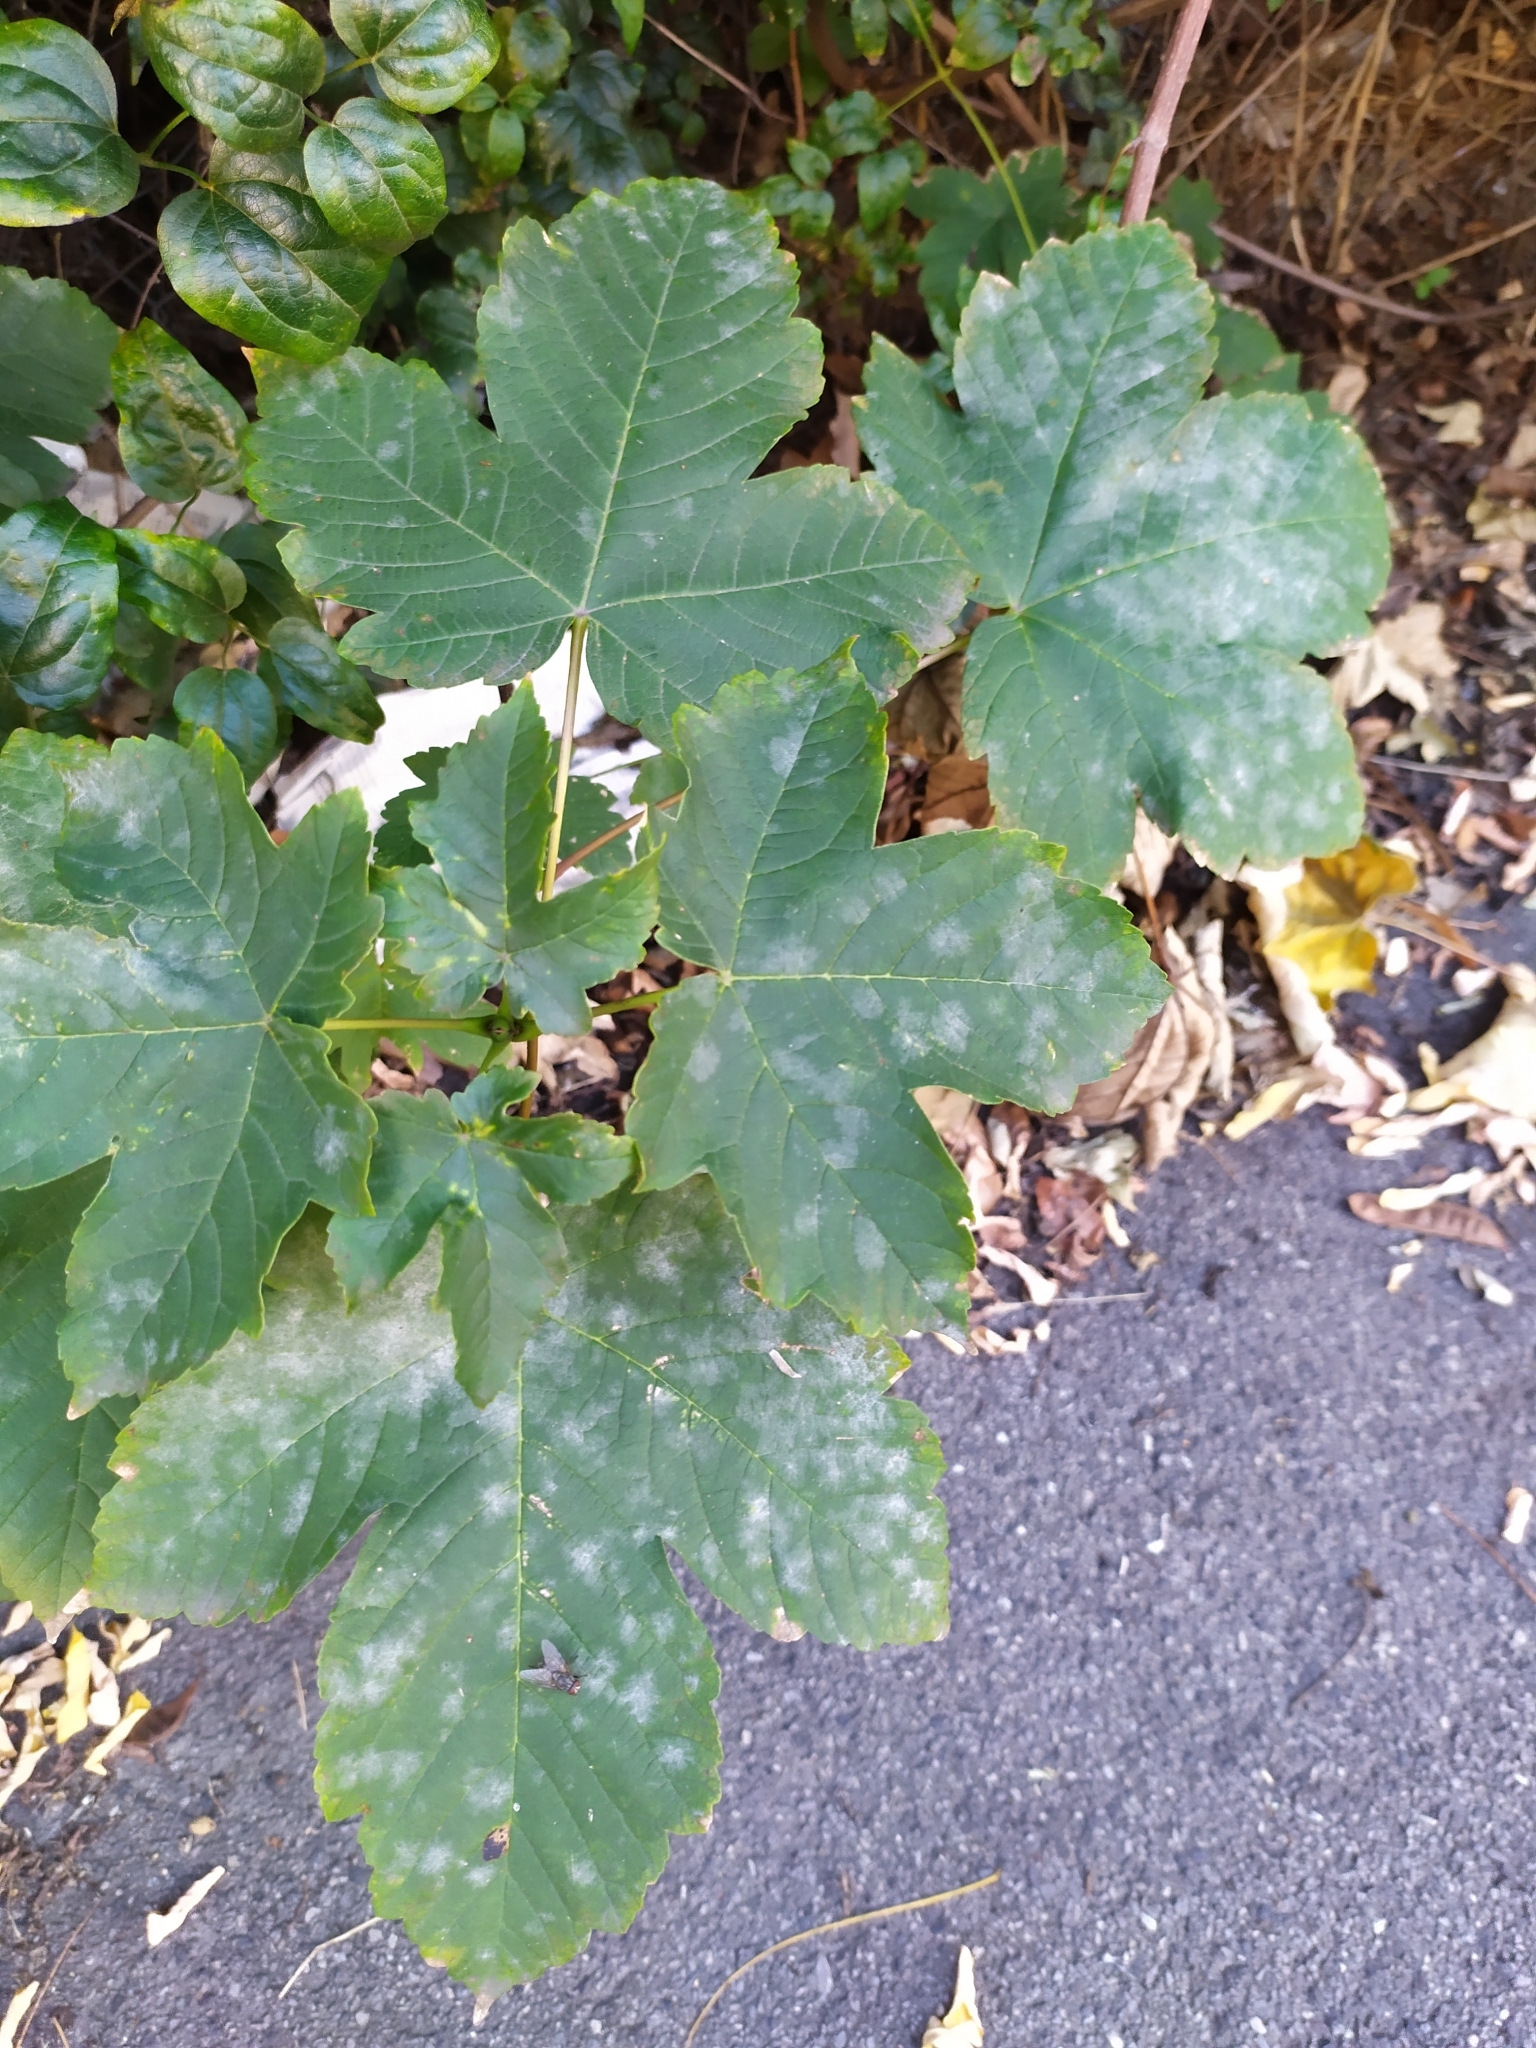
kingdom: Fungi
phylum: Ascomycota
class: Leotiomycetes
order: Helotiales
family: Erysiphaceae
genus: Sawadaea
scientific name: Sawadaea bicornis
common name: Maple mildew
